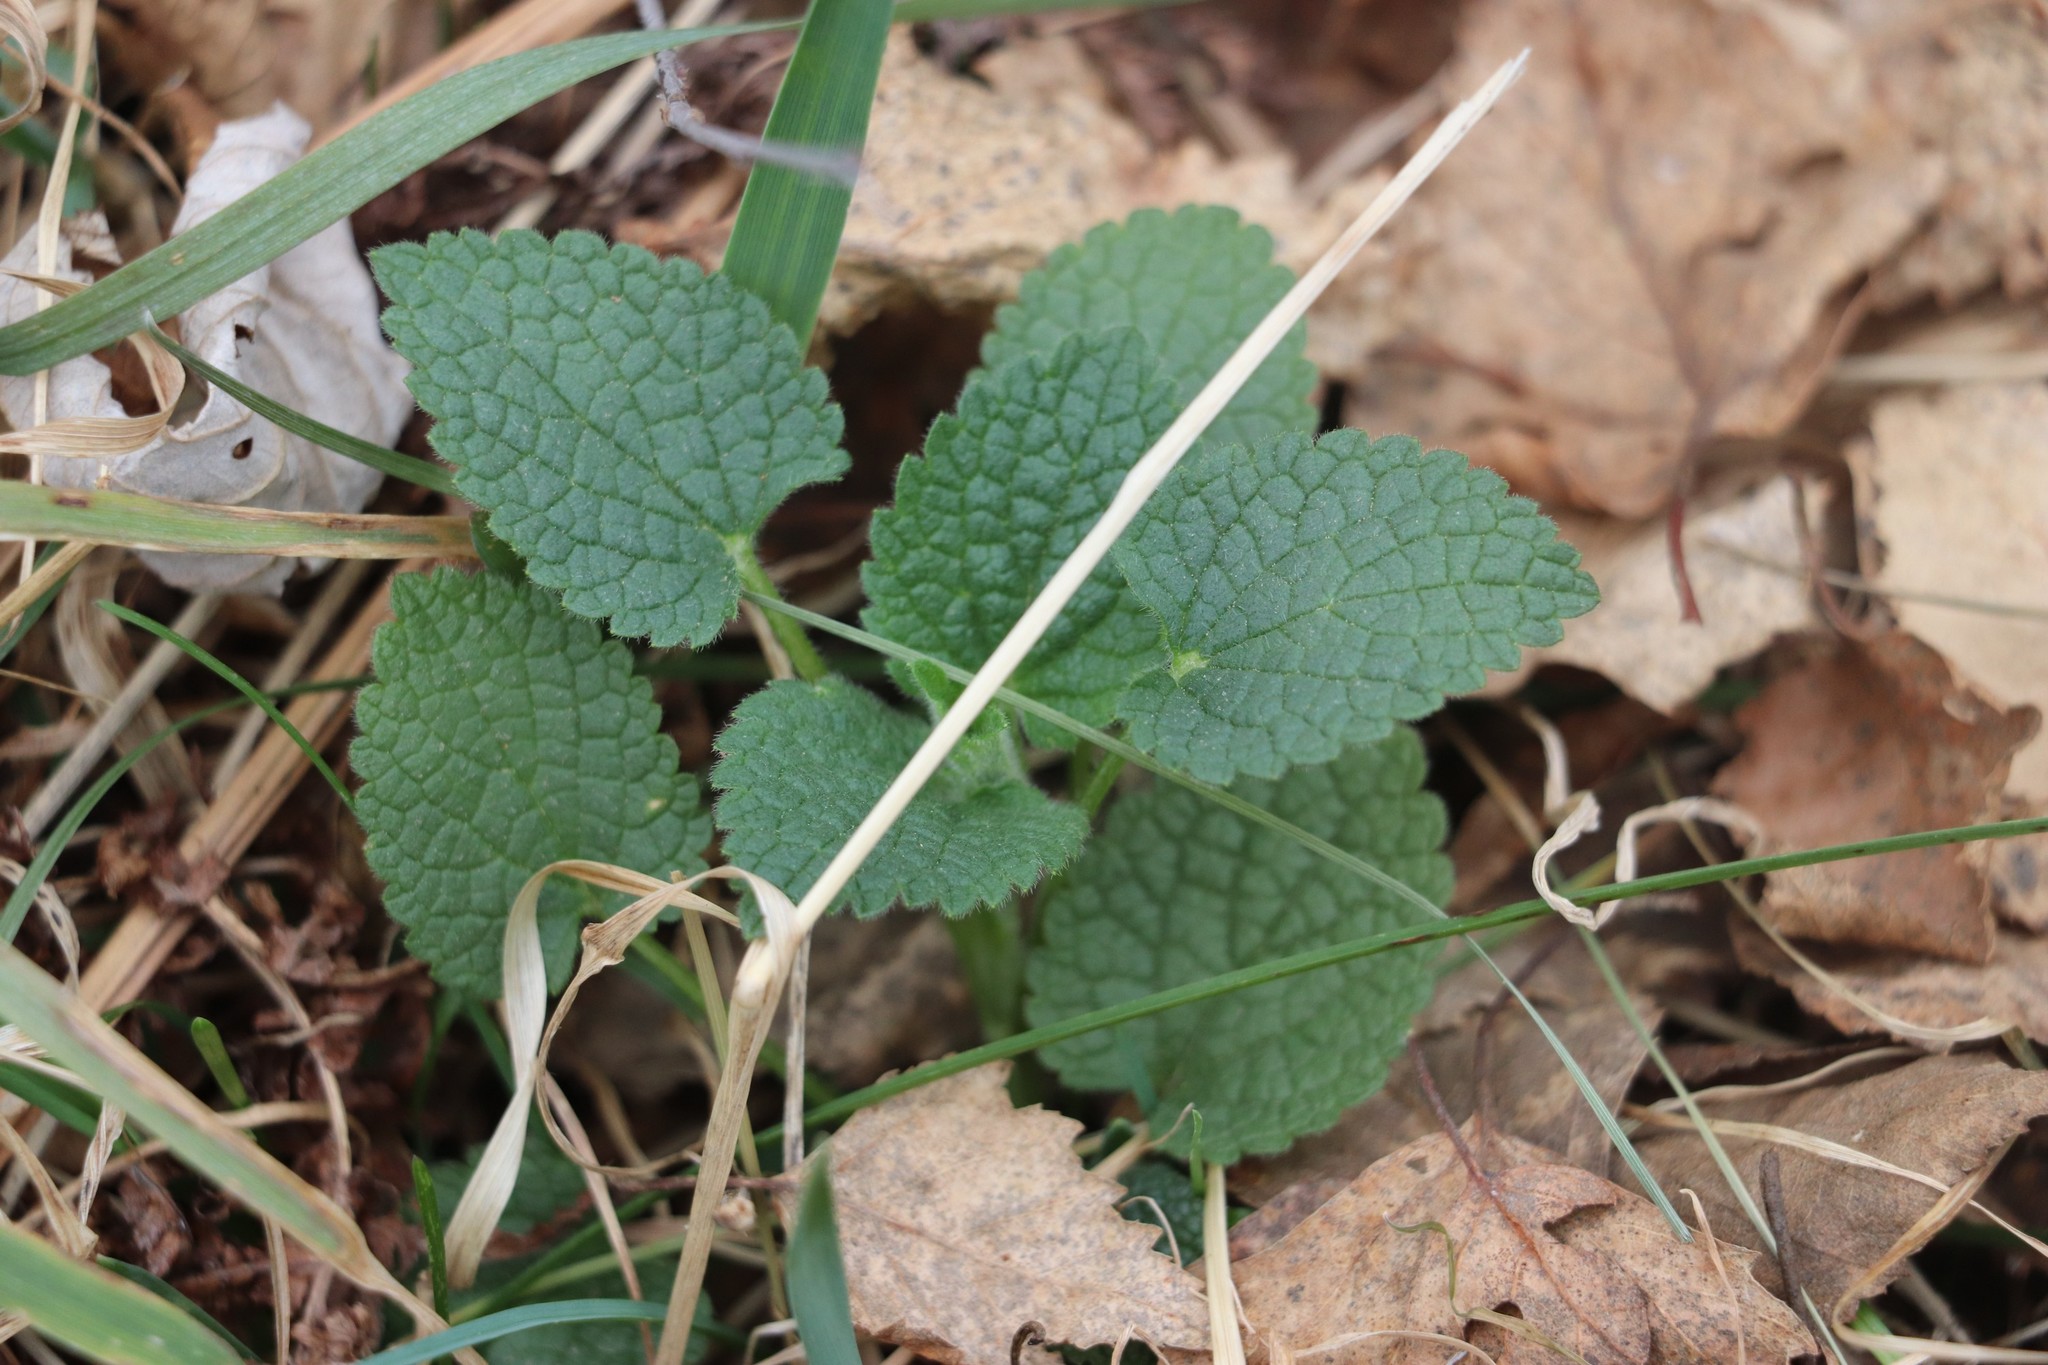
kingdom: Plantae
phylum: Tracheophyta
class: Magnoliopsida
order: Lamiales
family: Lamiaceae
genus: Lamium
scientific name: Lamium album
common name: White dead-nettle
